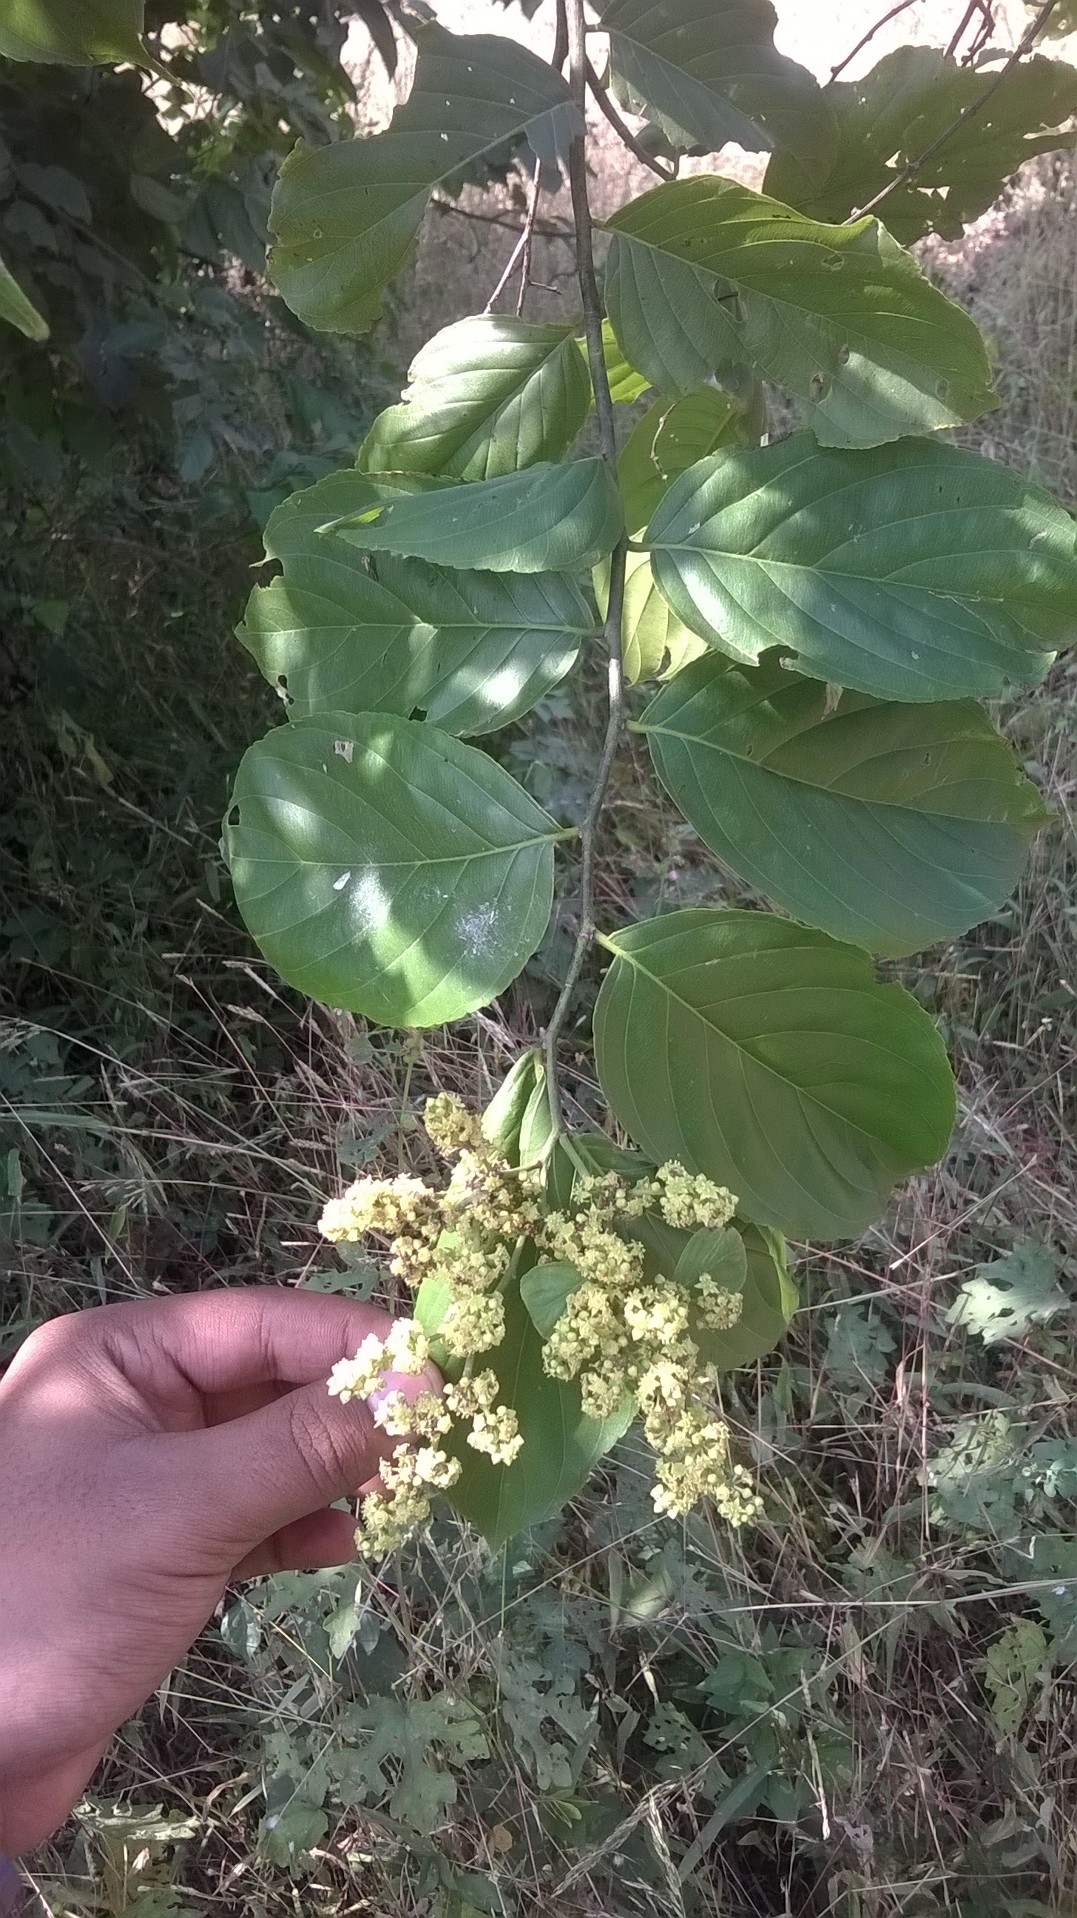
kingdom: Plantae
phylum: Tracheophyta
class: Magnoliopsida
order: Rosales
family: Rhamnaceae
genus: Ventilago
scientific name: Ventilago denticulata
